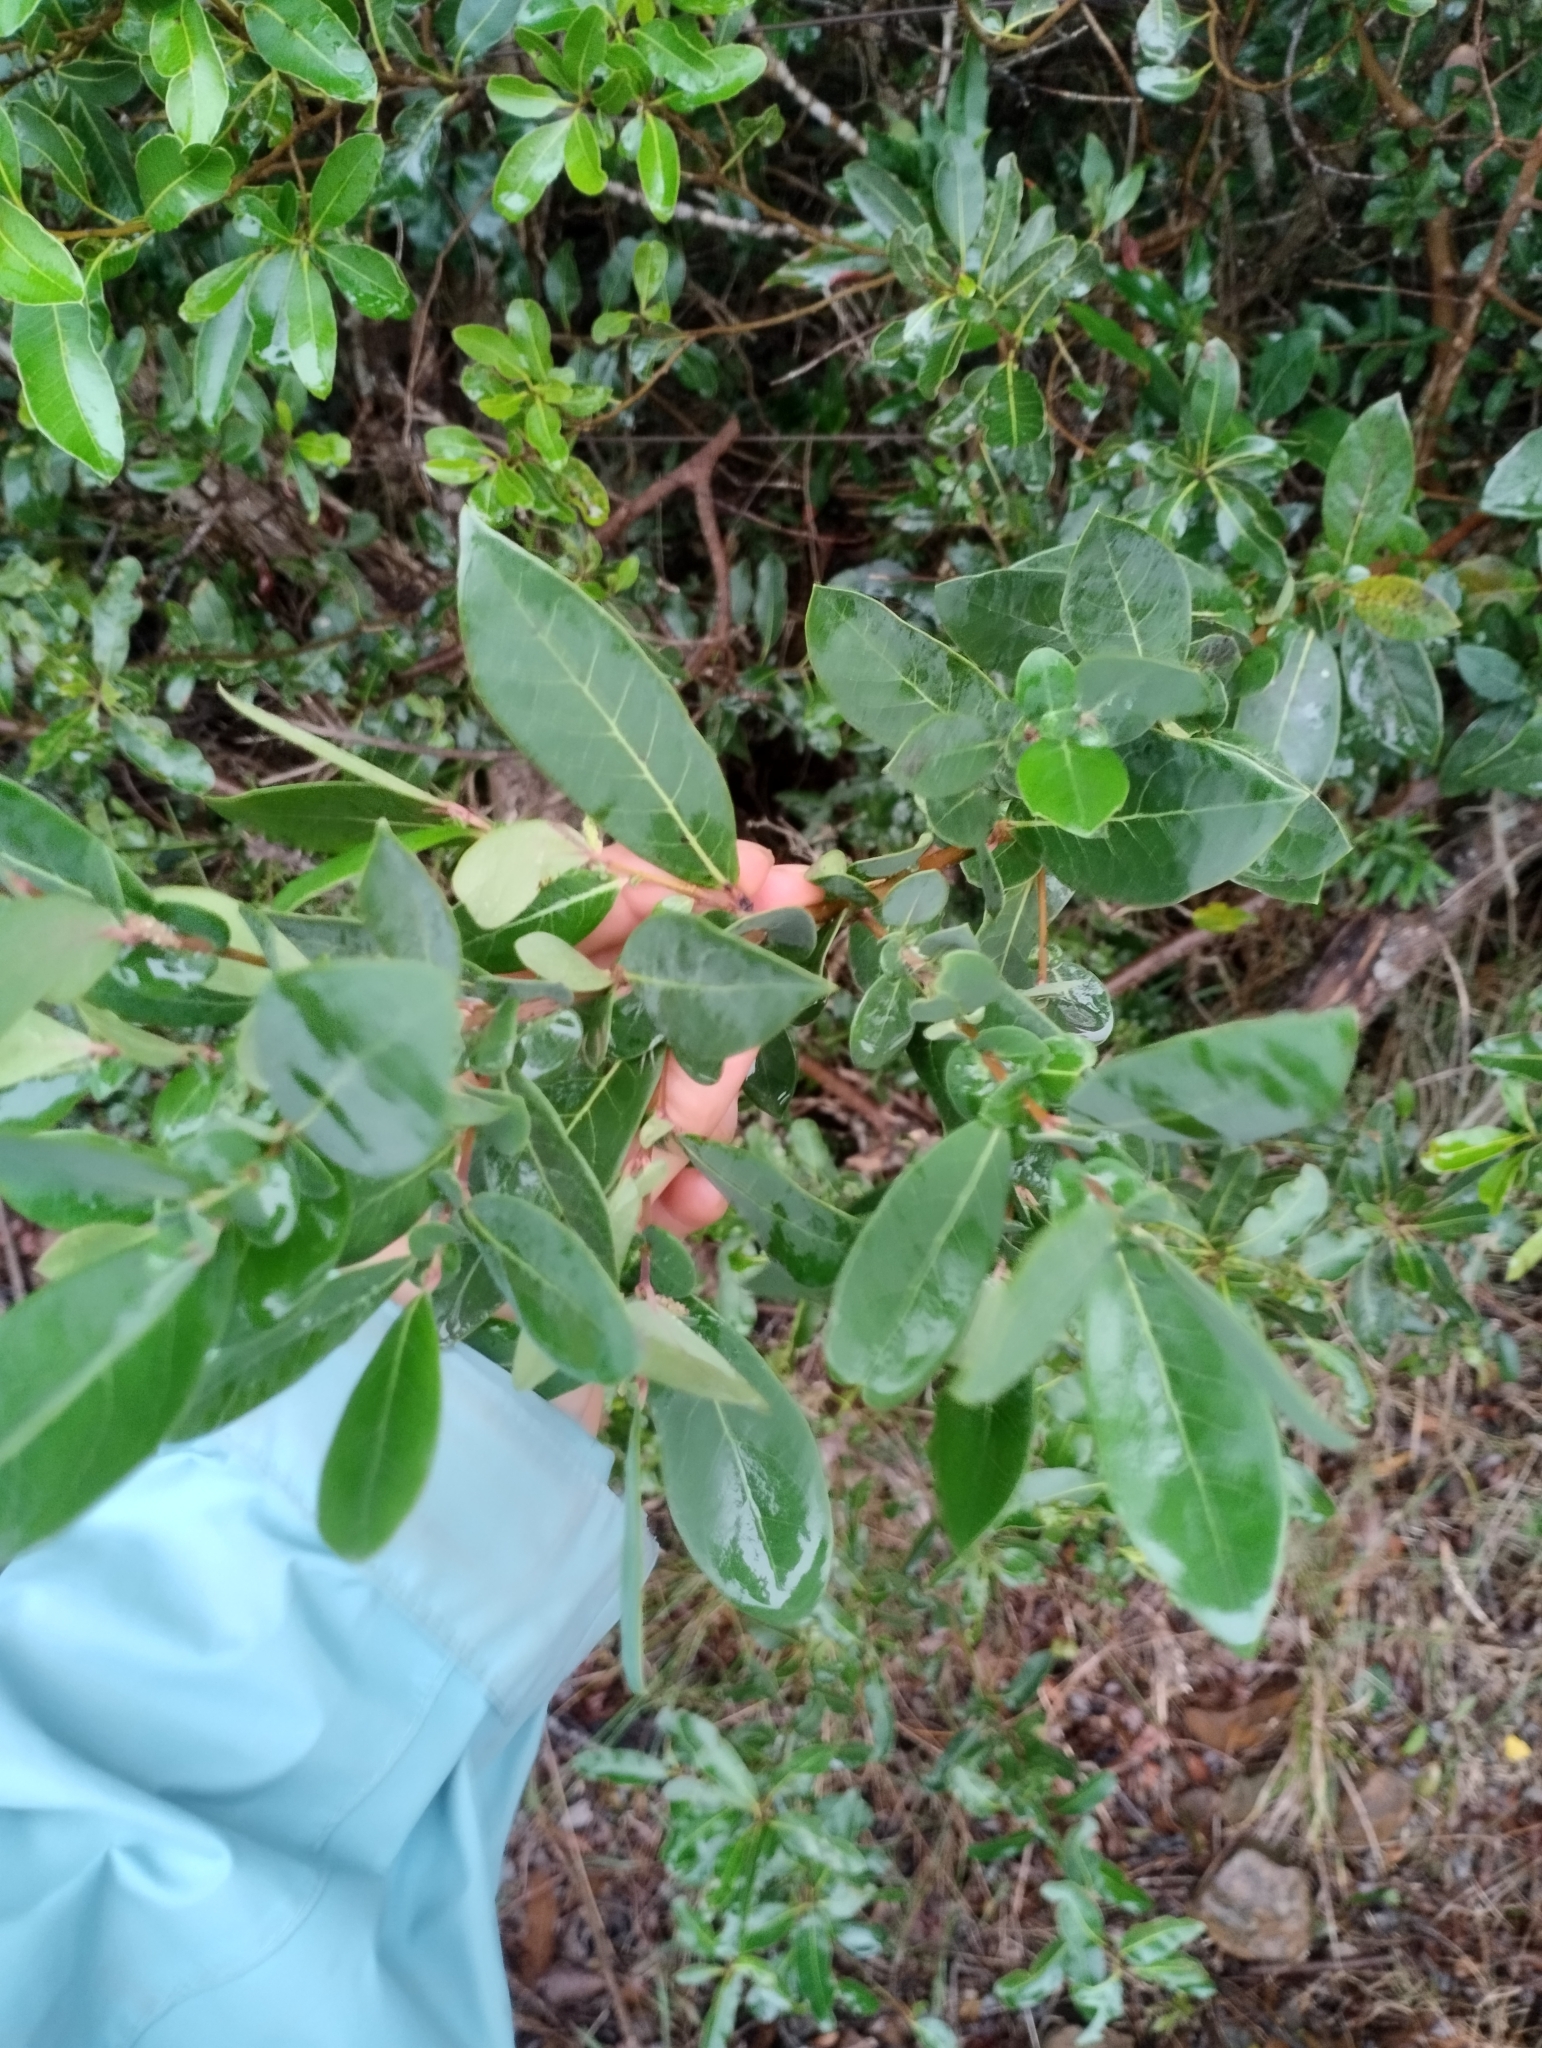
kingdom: Plantae
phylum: Tracheophyta
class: Magnoliopsida
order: Malpighiales
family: Salicaceae
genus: Azara
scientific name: Azara uruguayensis
